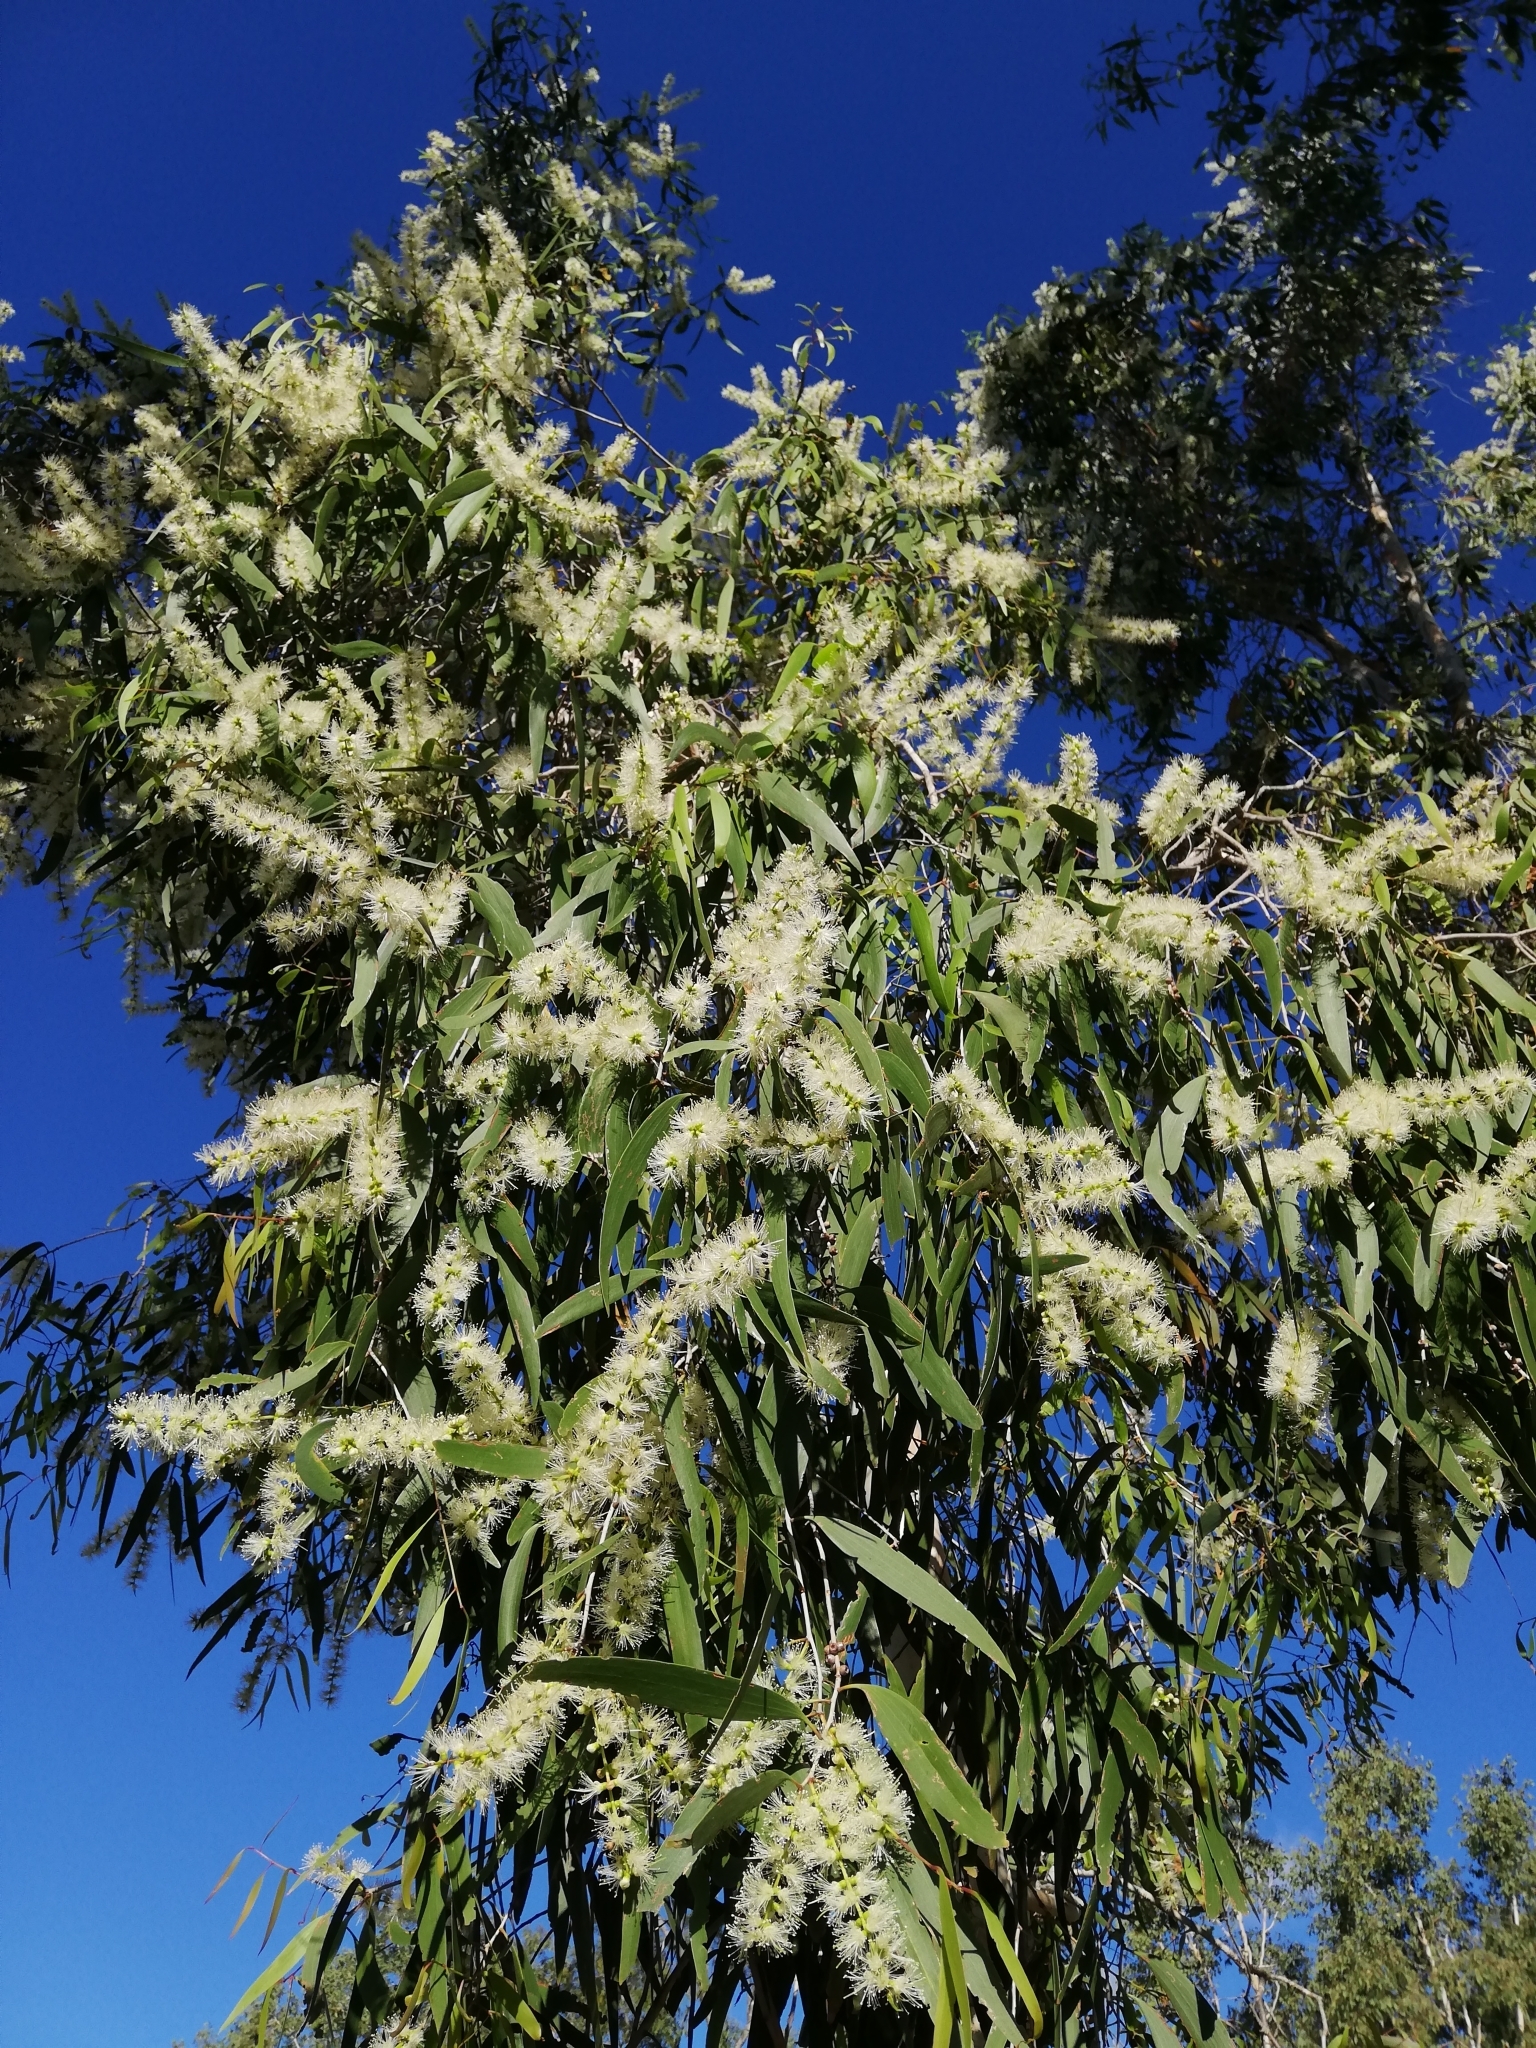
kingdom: Plantae
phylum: Tracheophyta
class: Magnoliopsida
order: Myrtales
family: Myrtaceae
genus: Melaleuca
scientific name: Melaleuca leucadendra
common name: Weeping paperbark
